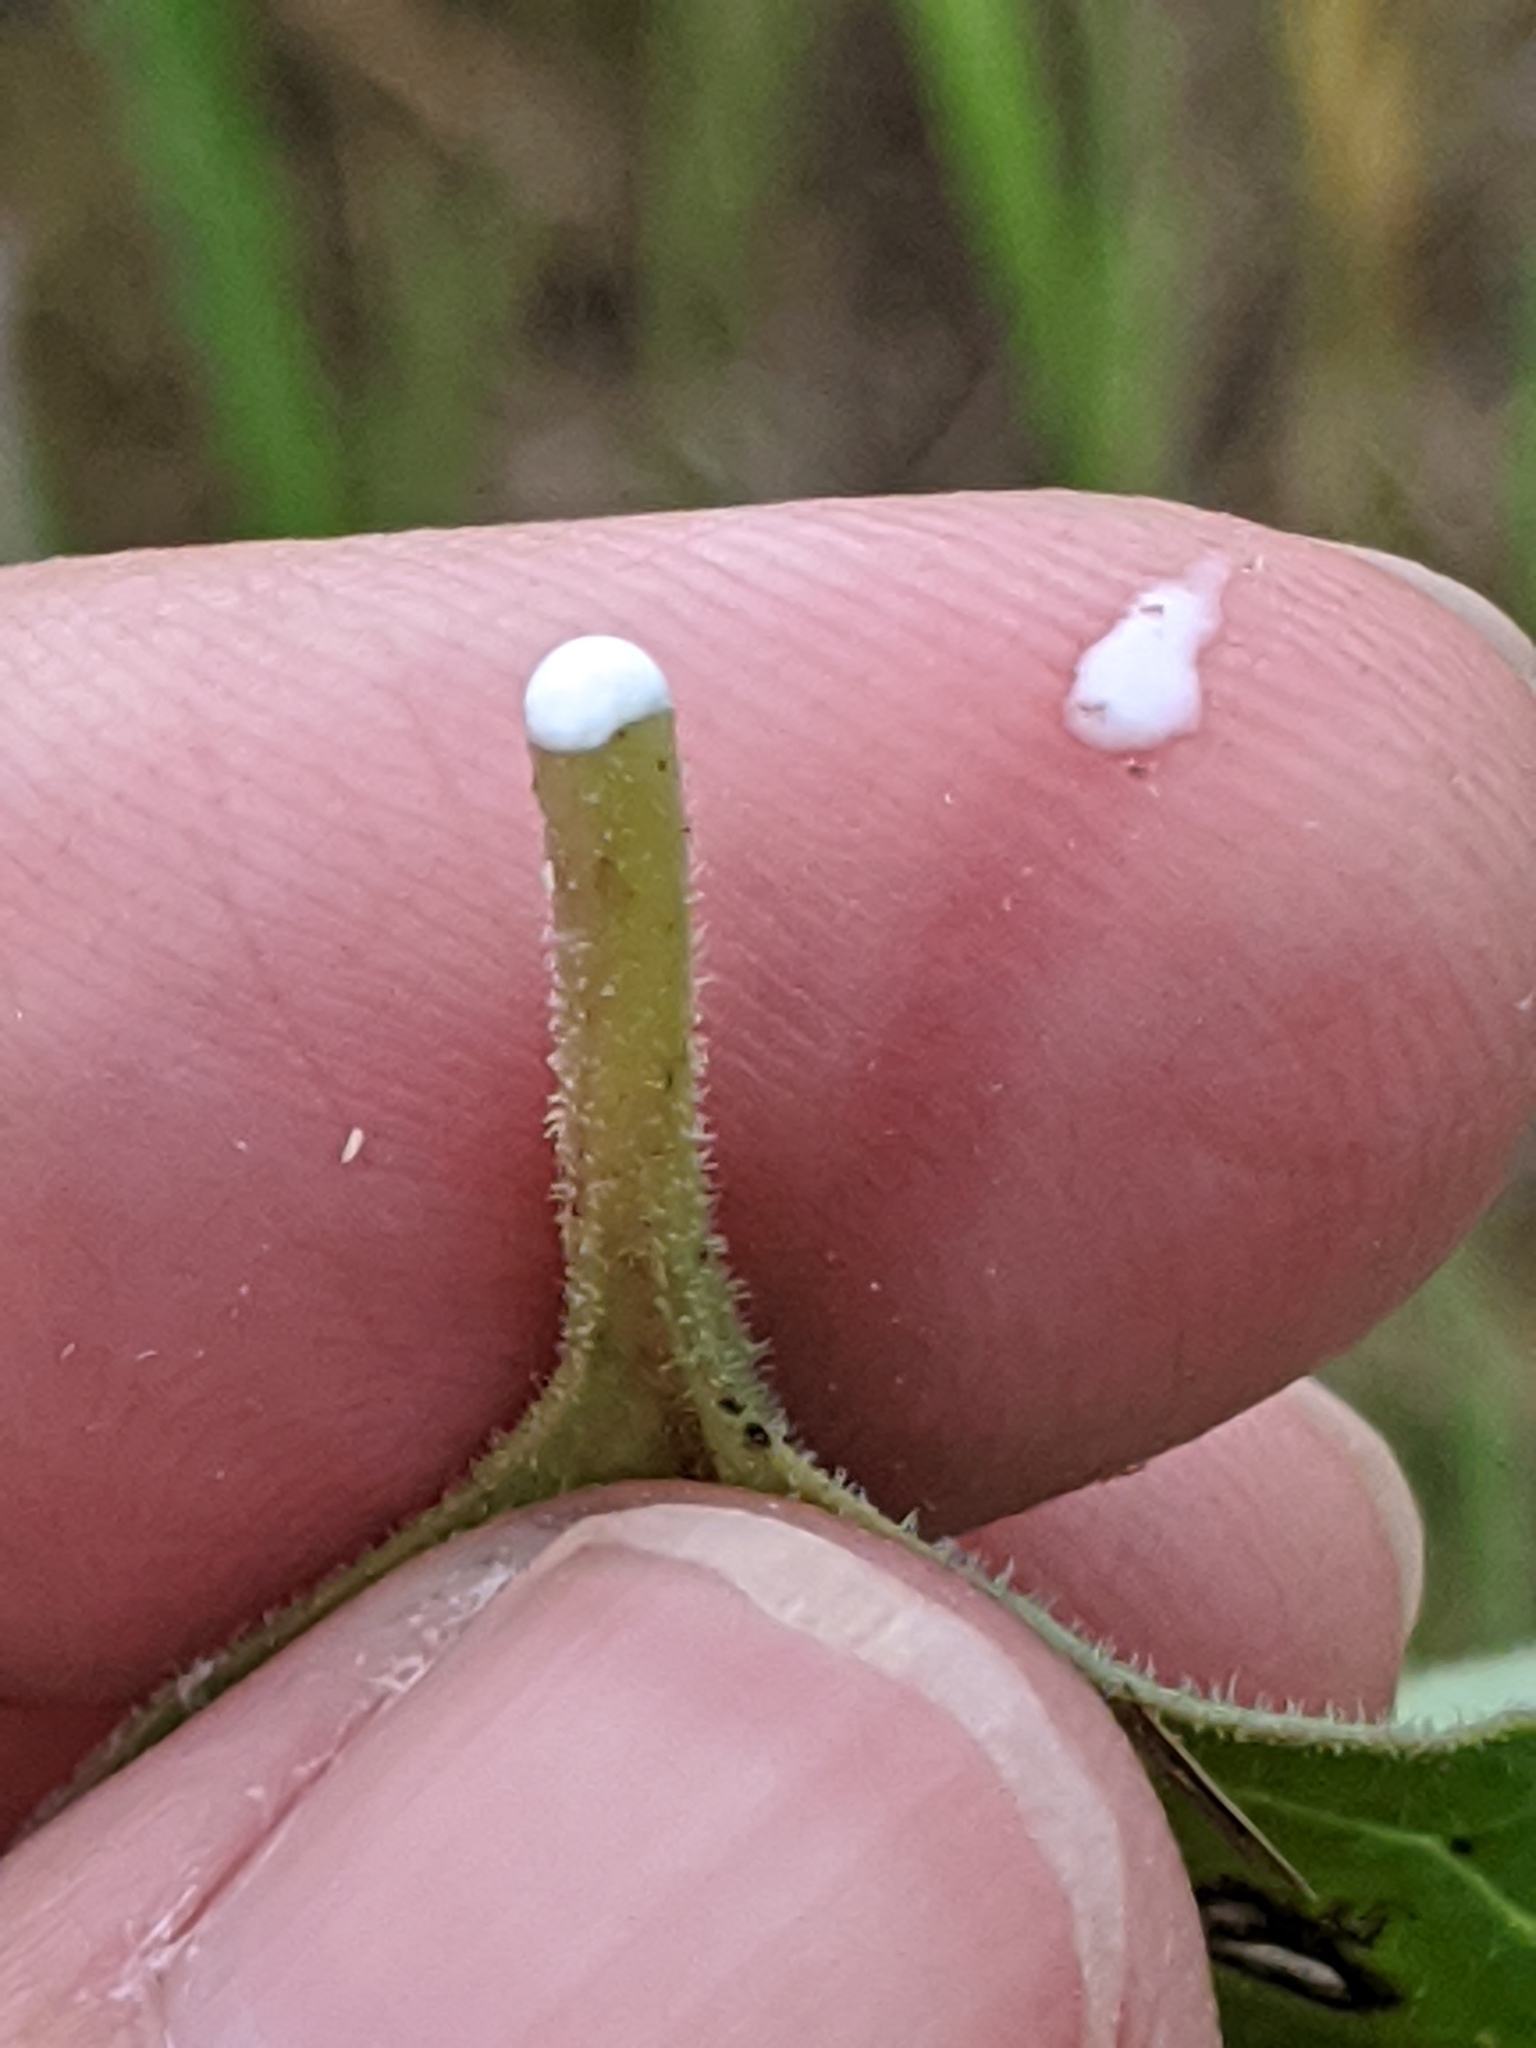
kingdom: Plantae
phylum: Tracheophyta
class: Magnoliopsida
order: Gentianales
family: Apocynaceae
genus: Asclepias
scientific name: Asclepias oenotheroides
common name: Zizotes milkweed
